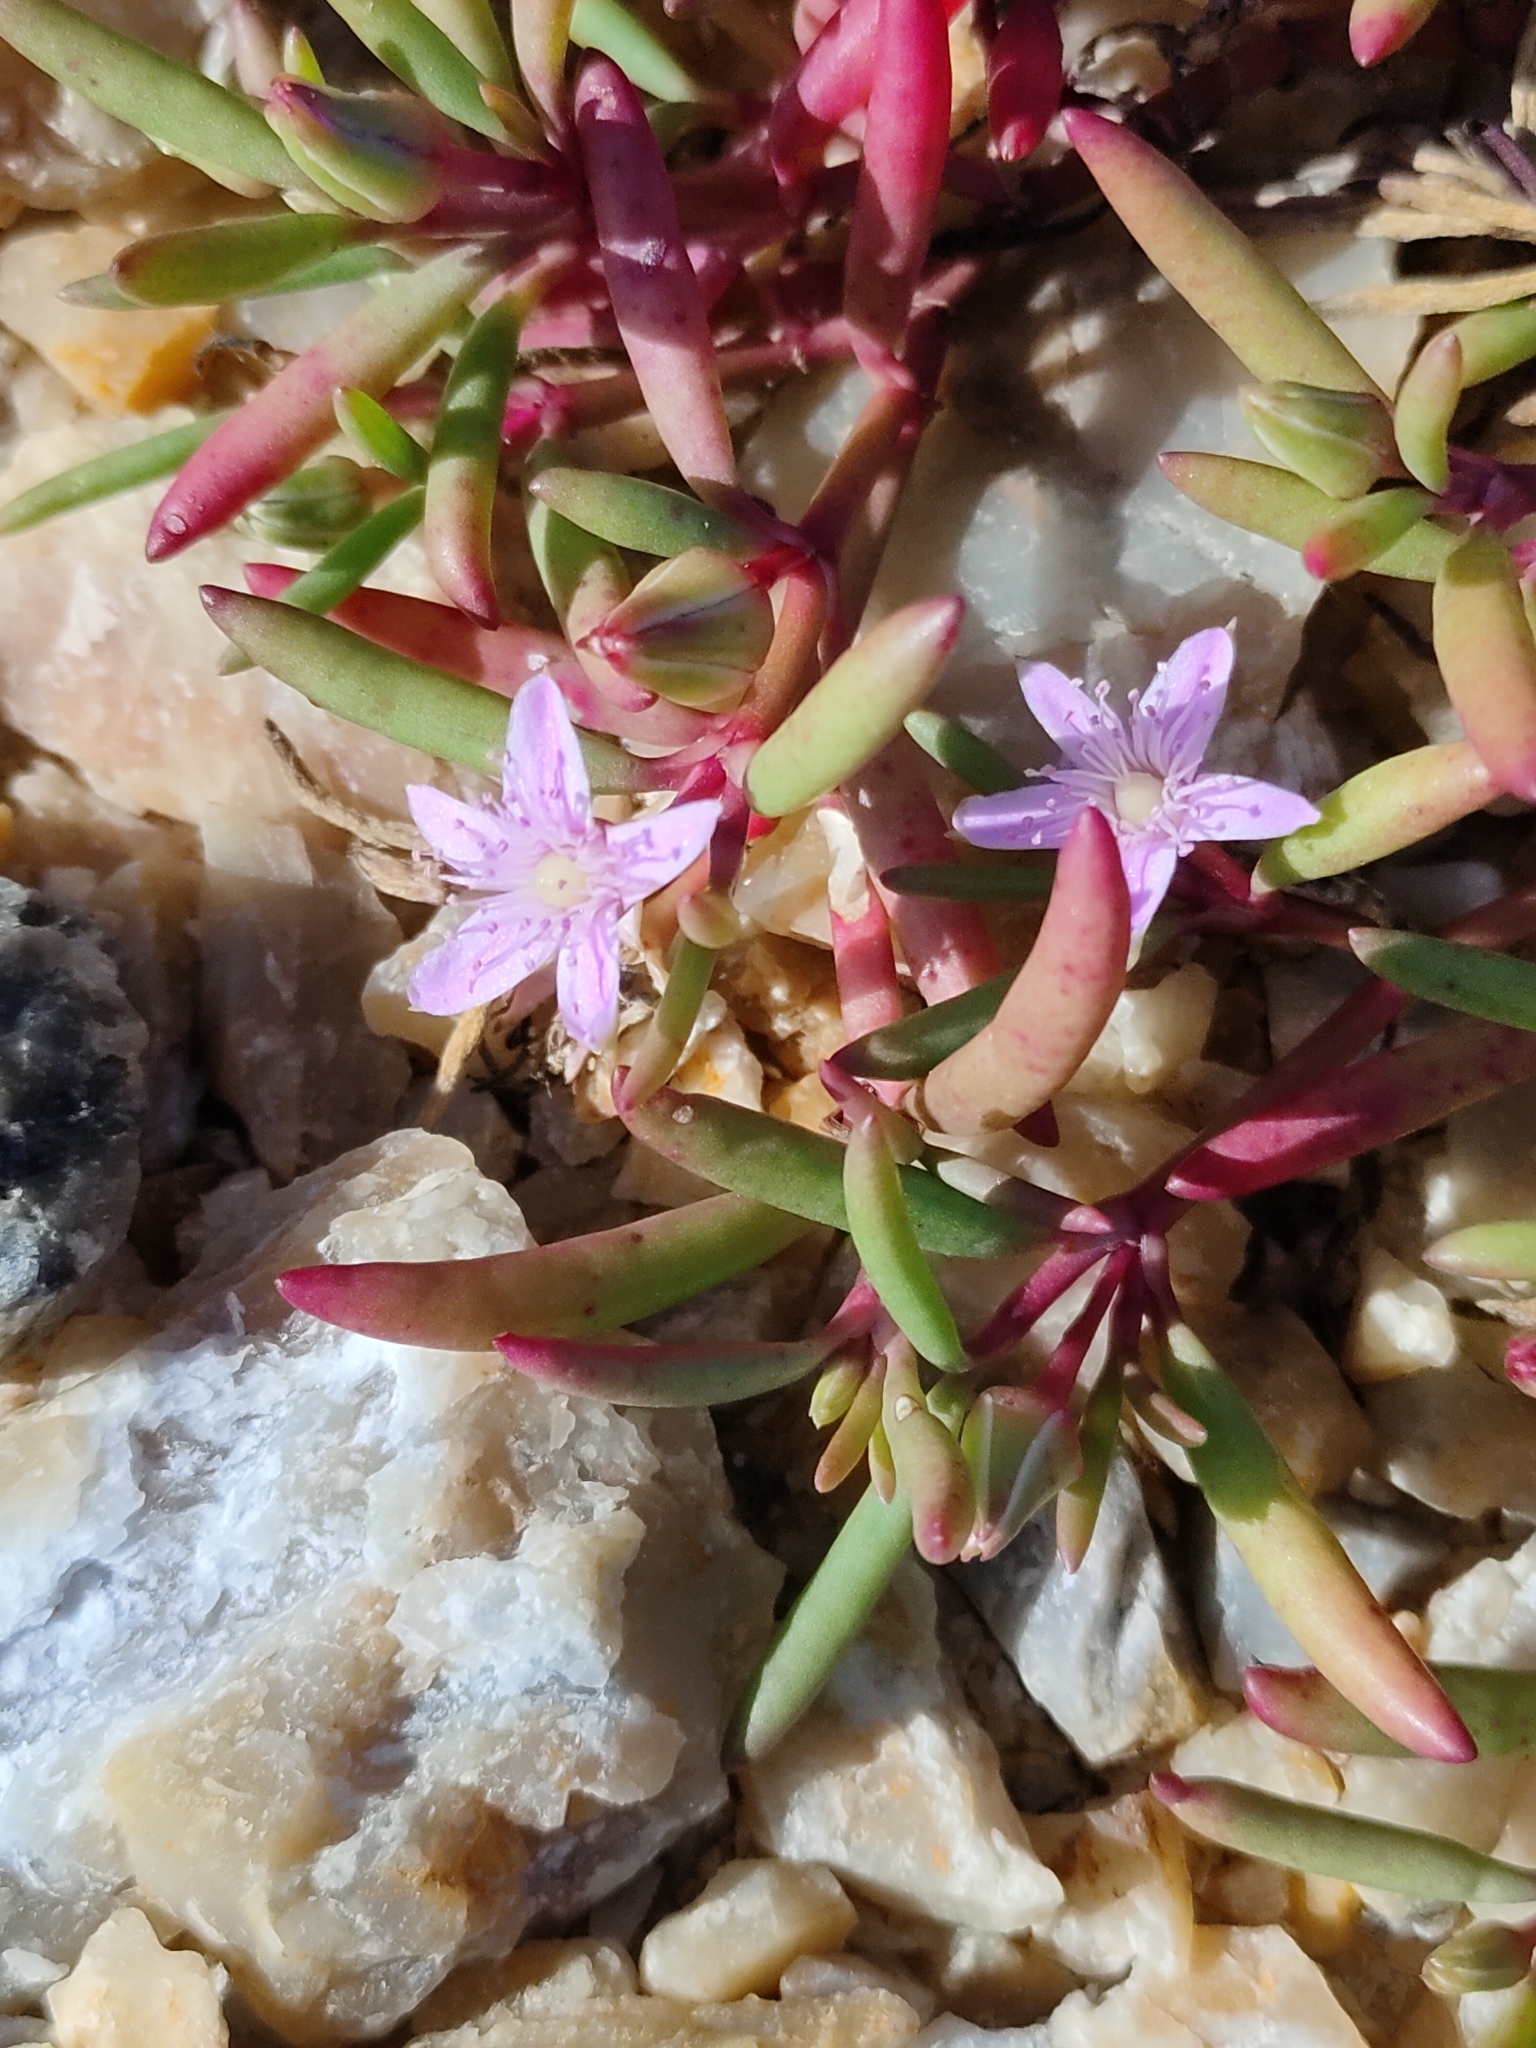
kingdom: Plantae
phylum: Tracheophyta
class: Magnoliopsida
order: Caryophyllales
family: Aizoaceae
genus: Sesuvium
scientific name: Sesuvium portulacastrum
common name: Sea-purslane
